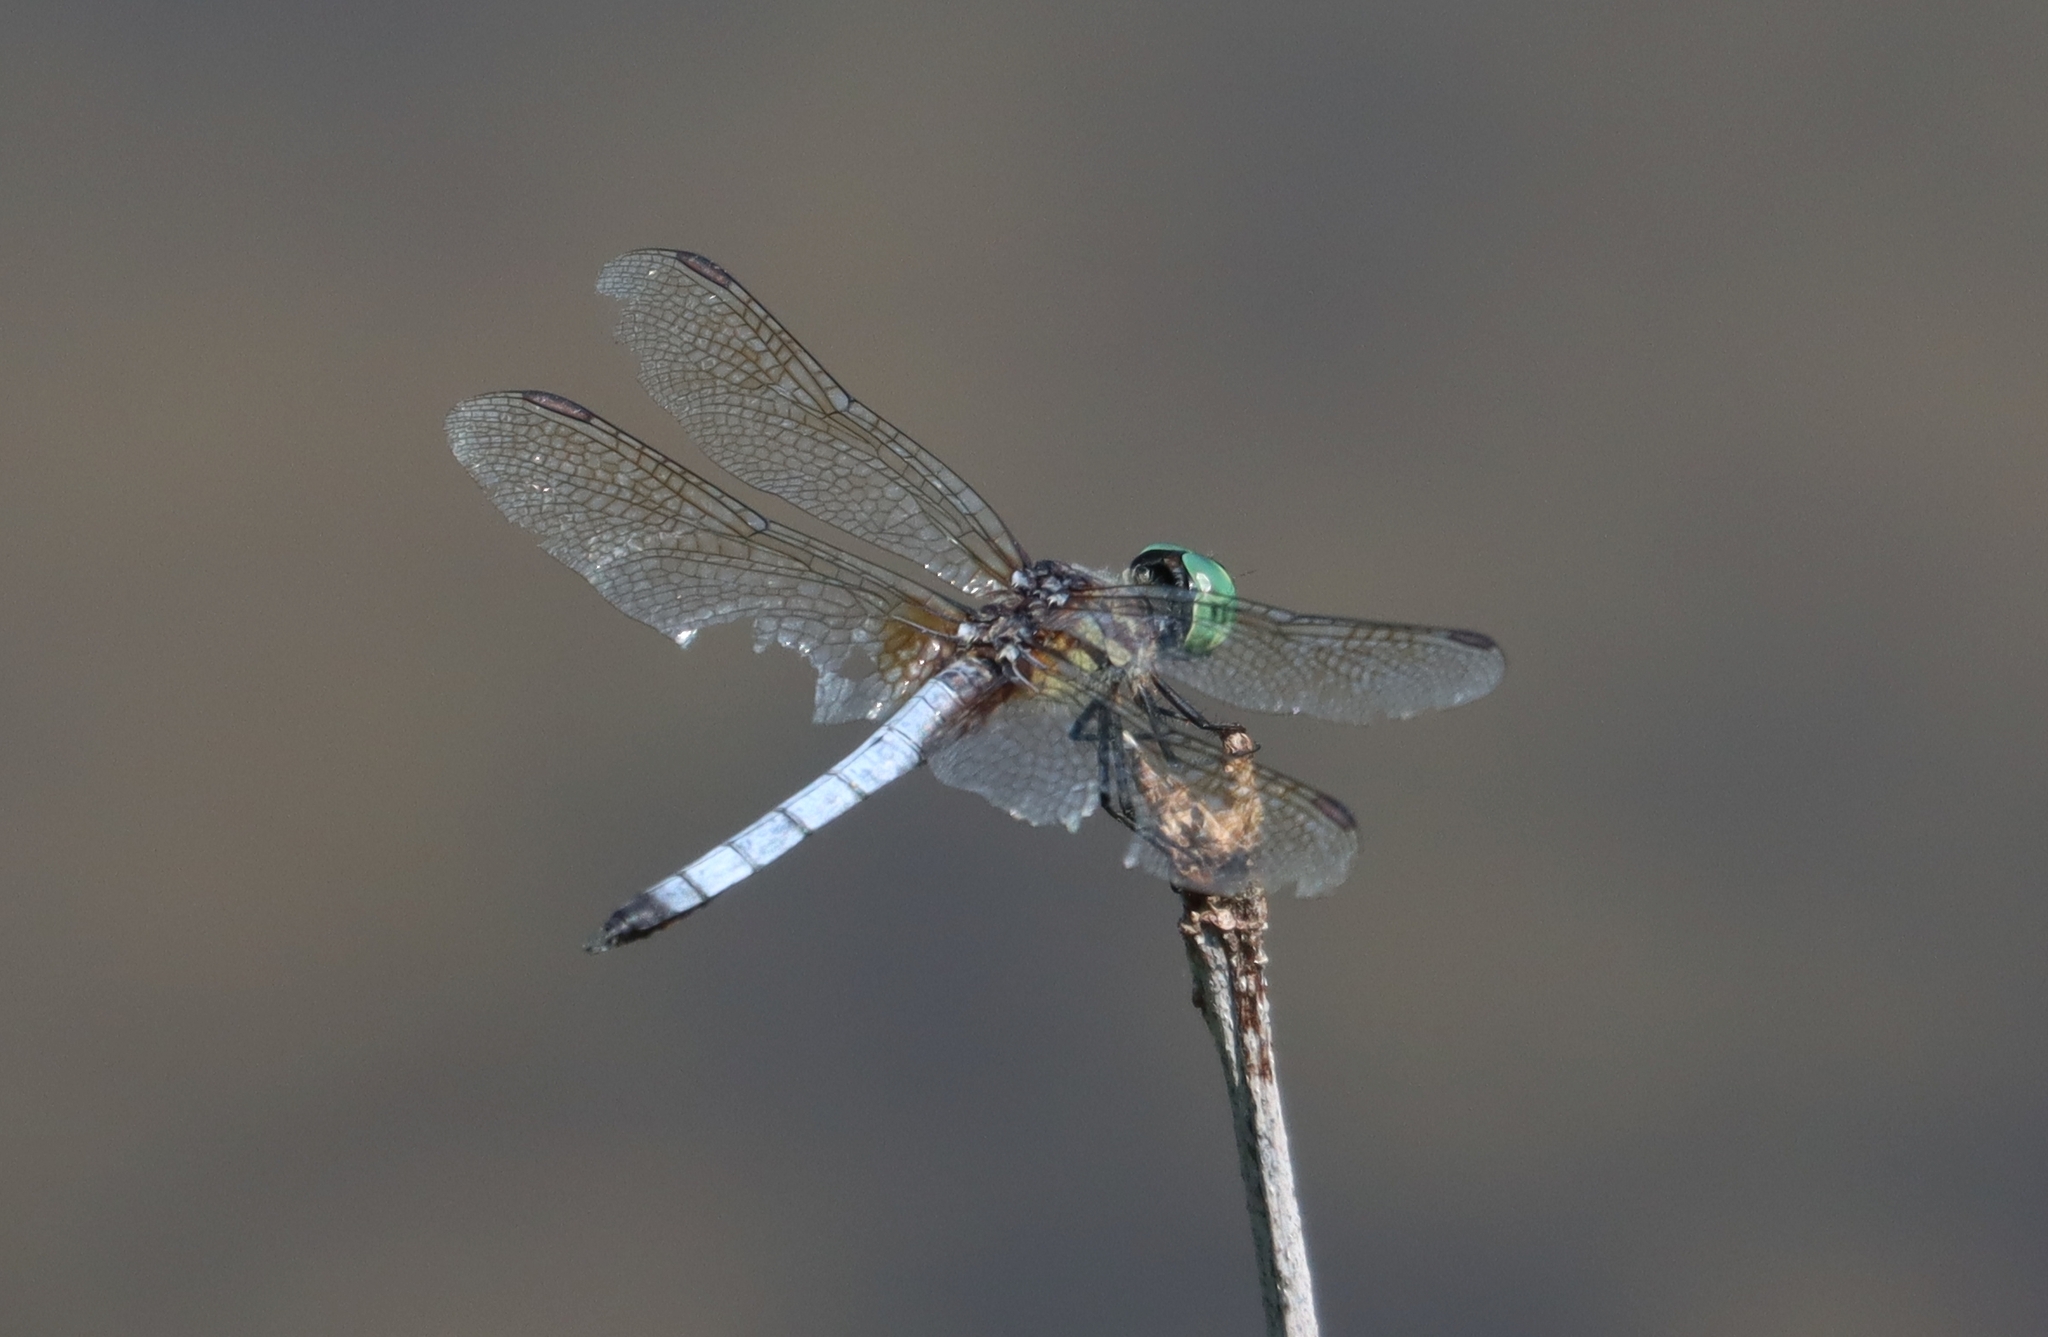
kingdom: Animalia
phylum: Arthropoda
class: Insecta
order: Odonata
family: Libellulidae
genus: Pachydiplax
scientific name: Pachydiplax longipennis
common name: Blue dasher
